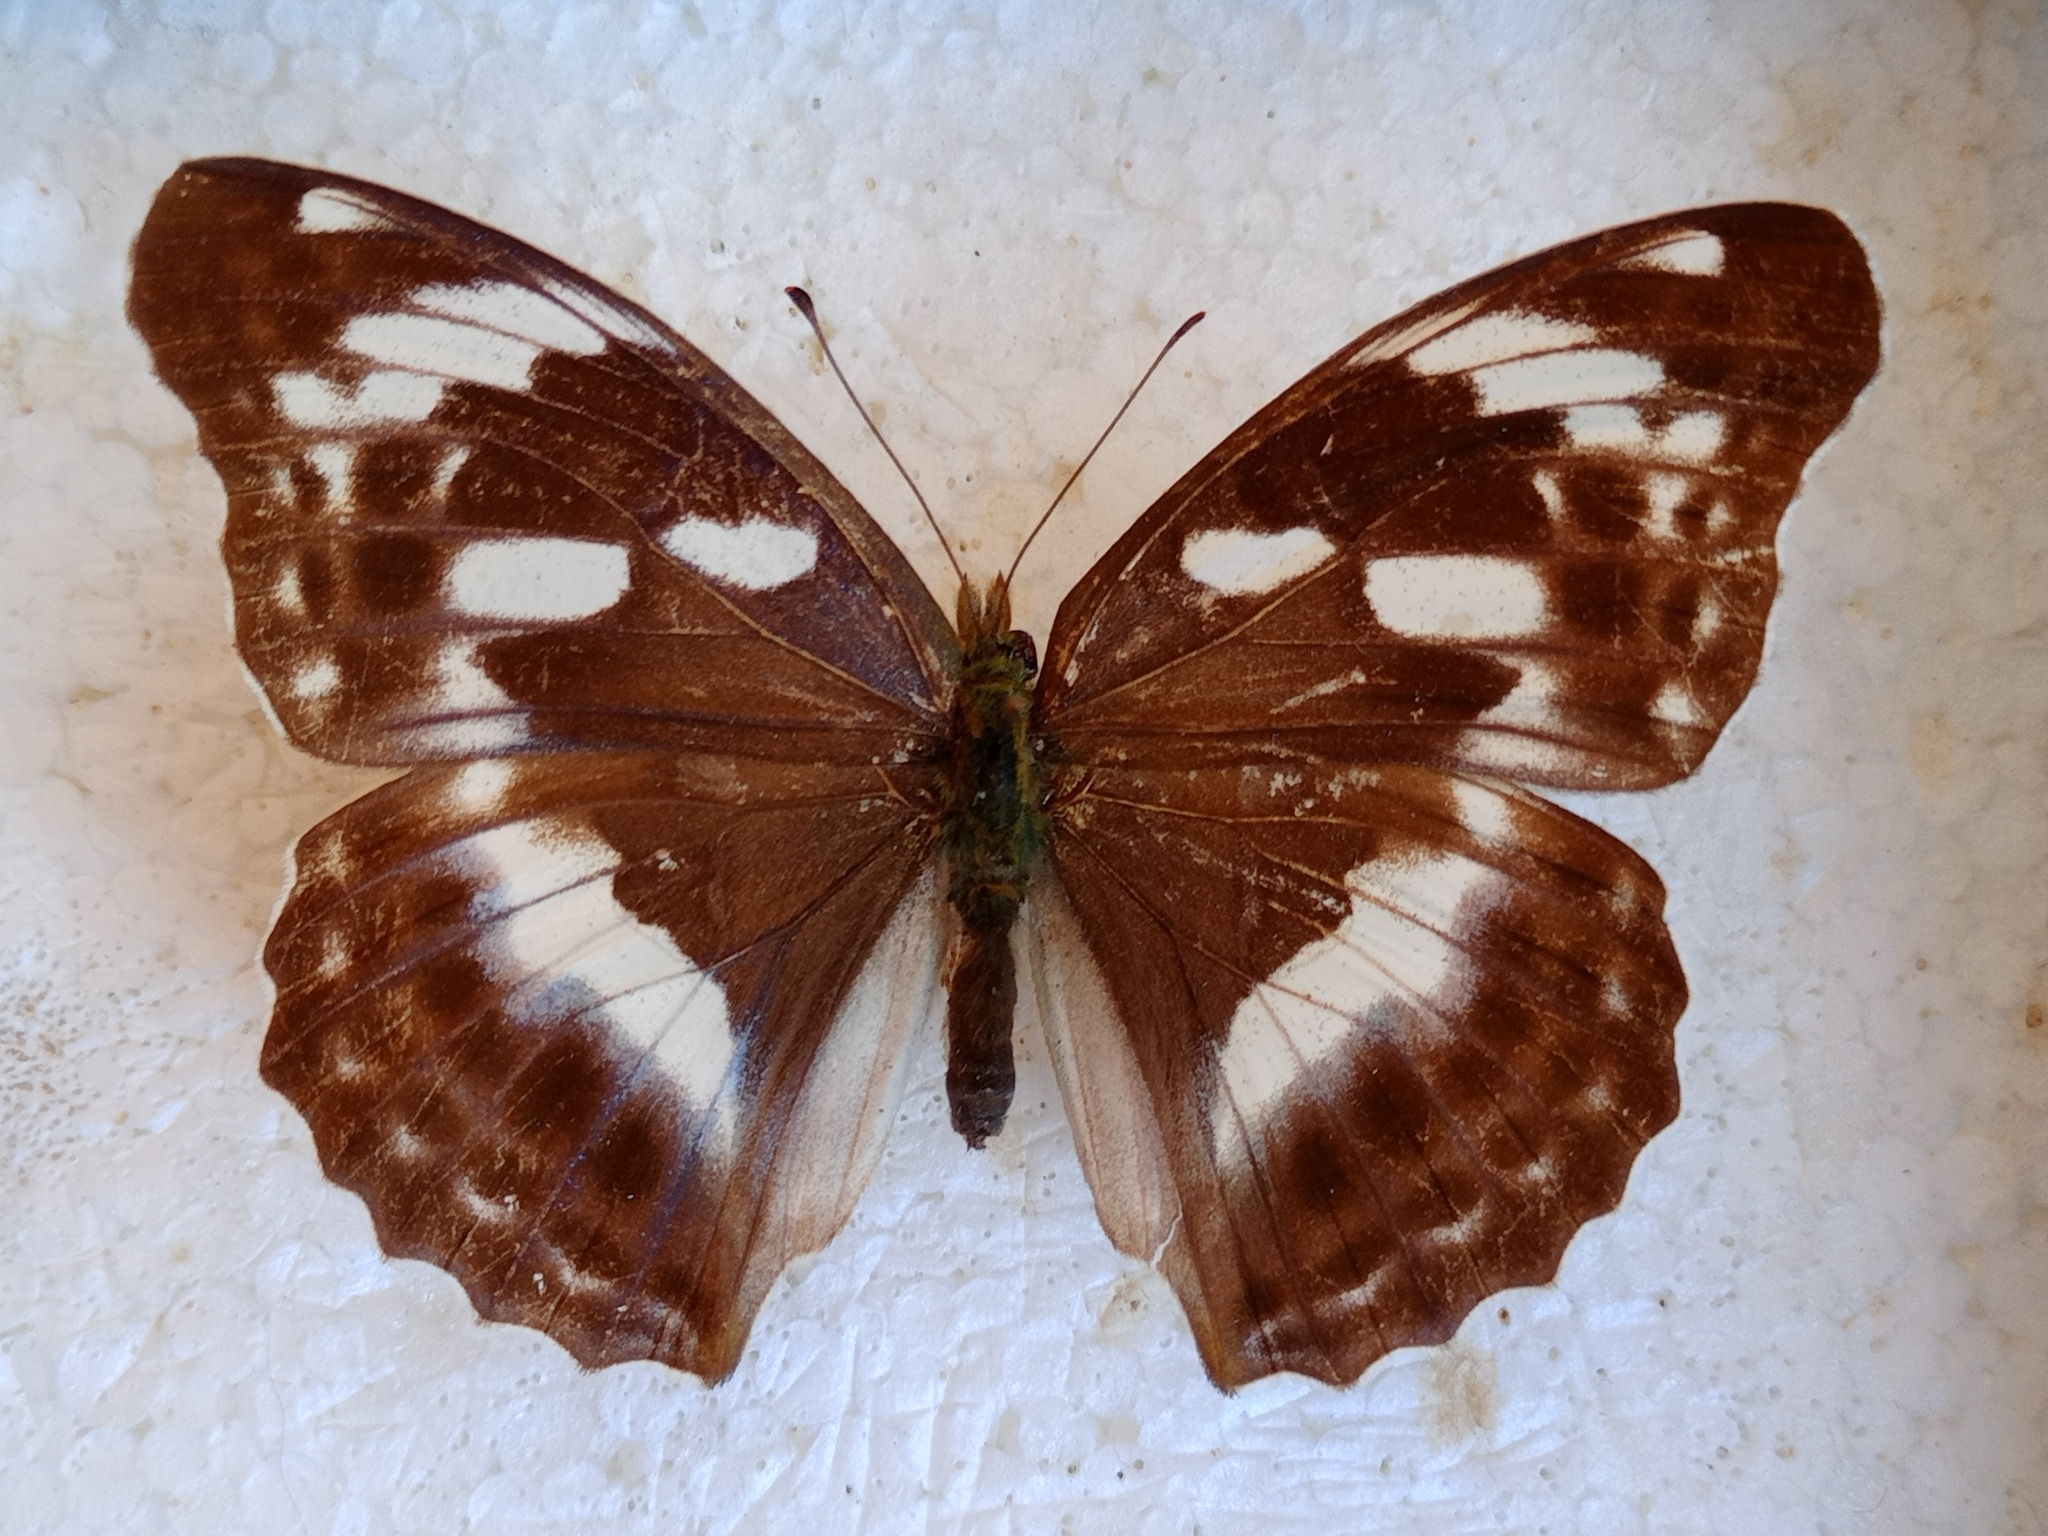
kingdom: Animalia
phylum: Arthropoda
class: Insecta
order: Lepidoptera
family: Nymphalidae
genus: Damora
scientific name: Damora sagana
